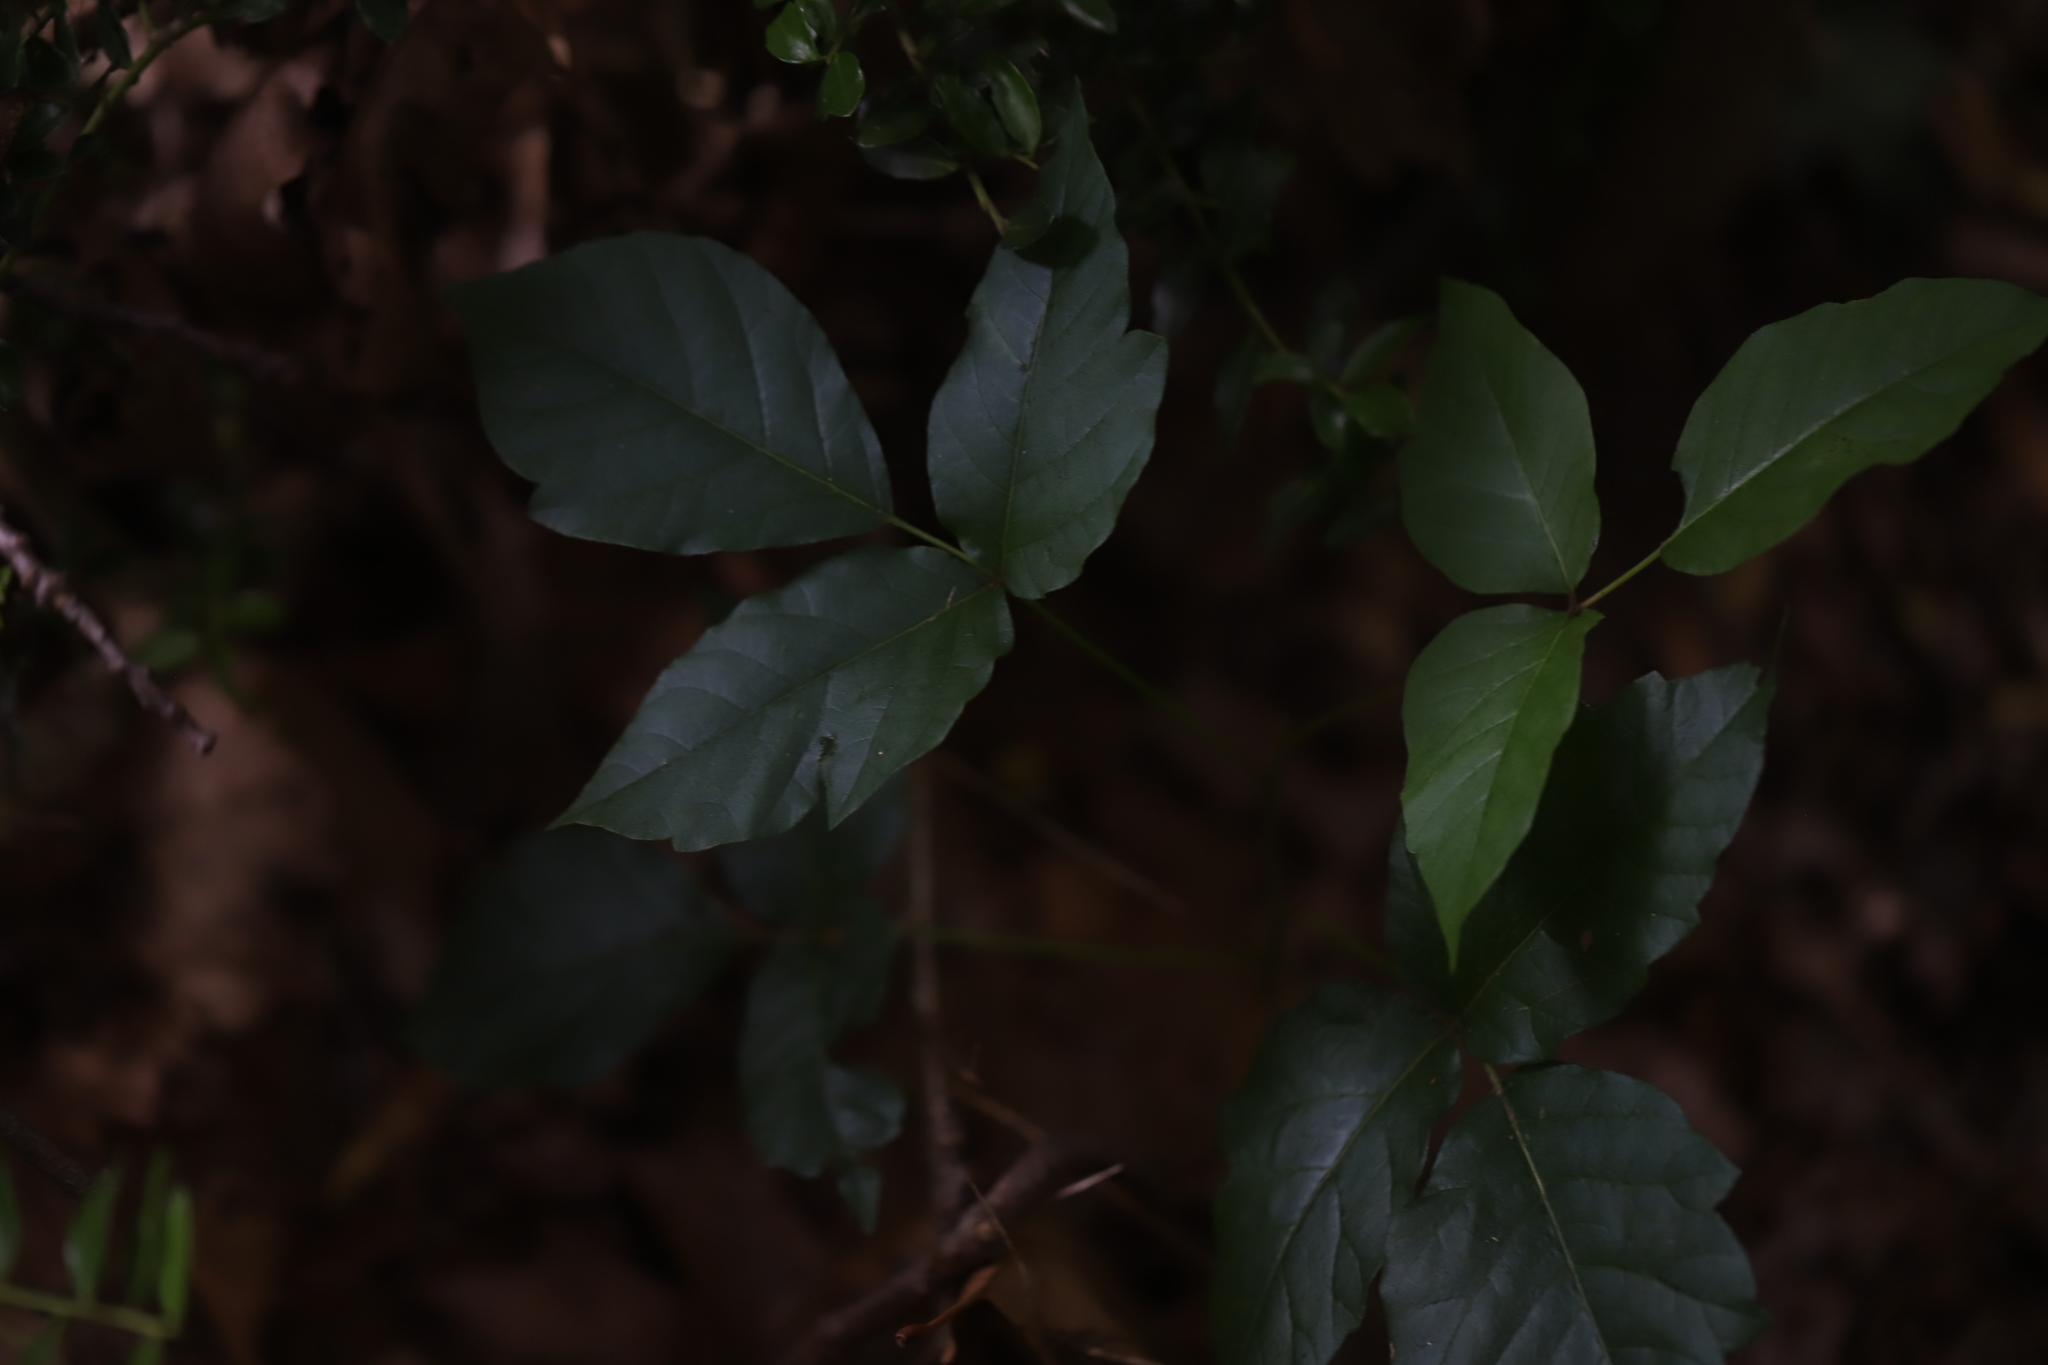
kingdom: Plantae
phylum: Tracheophyta
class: Magnoliopsida
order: Sapindales
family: Anacardiaceae
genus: Toxicodendron
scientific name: Toxicodendron radicans
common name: Poison ivy
